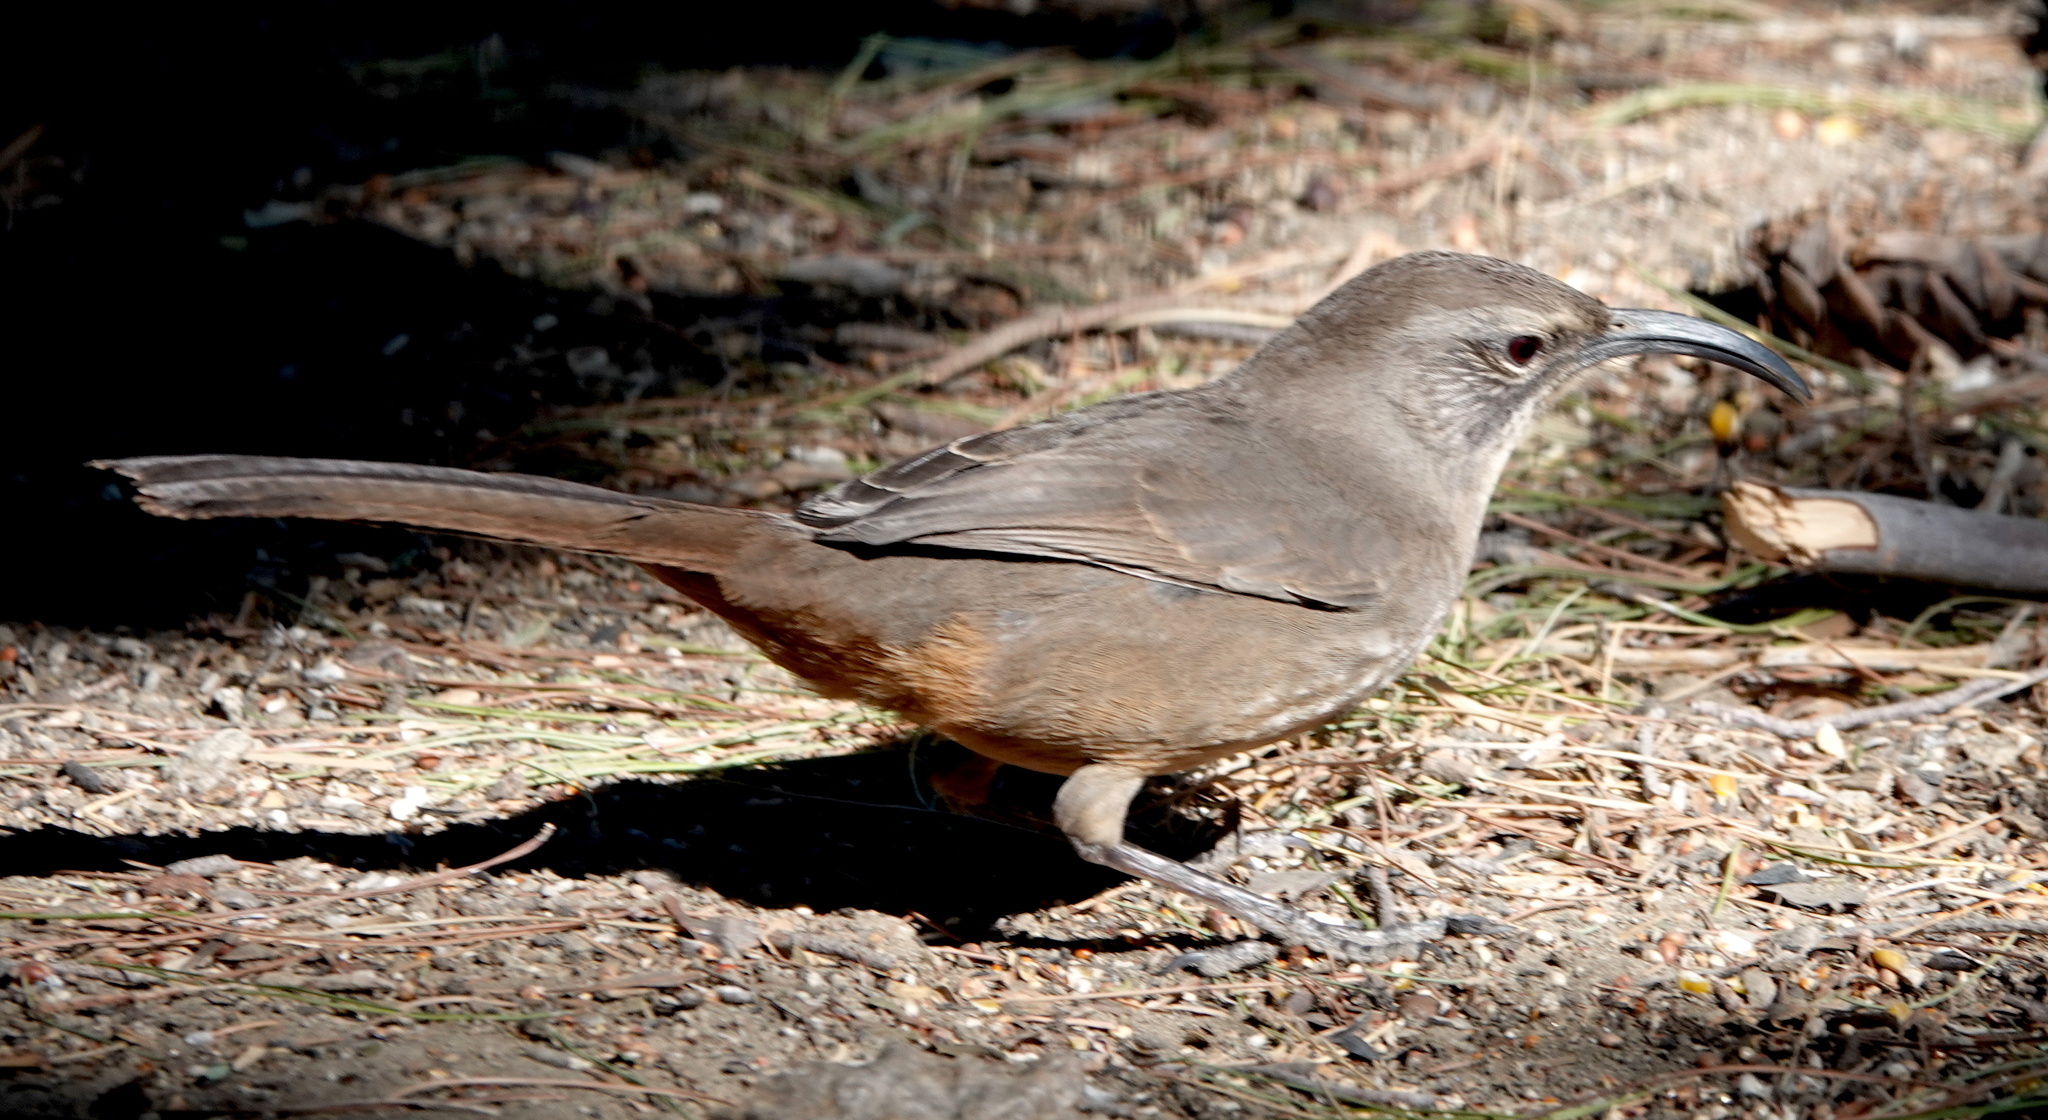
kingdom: Animalia
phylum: Chordata
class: Aves
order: Passeriformes
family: Mimidae
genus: Toxostoma
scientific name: Toxostoma redivivum
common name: California thrasher
